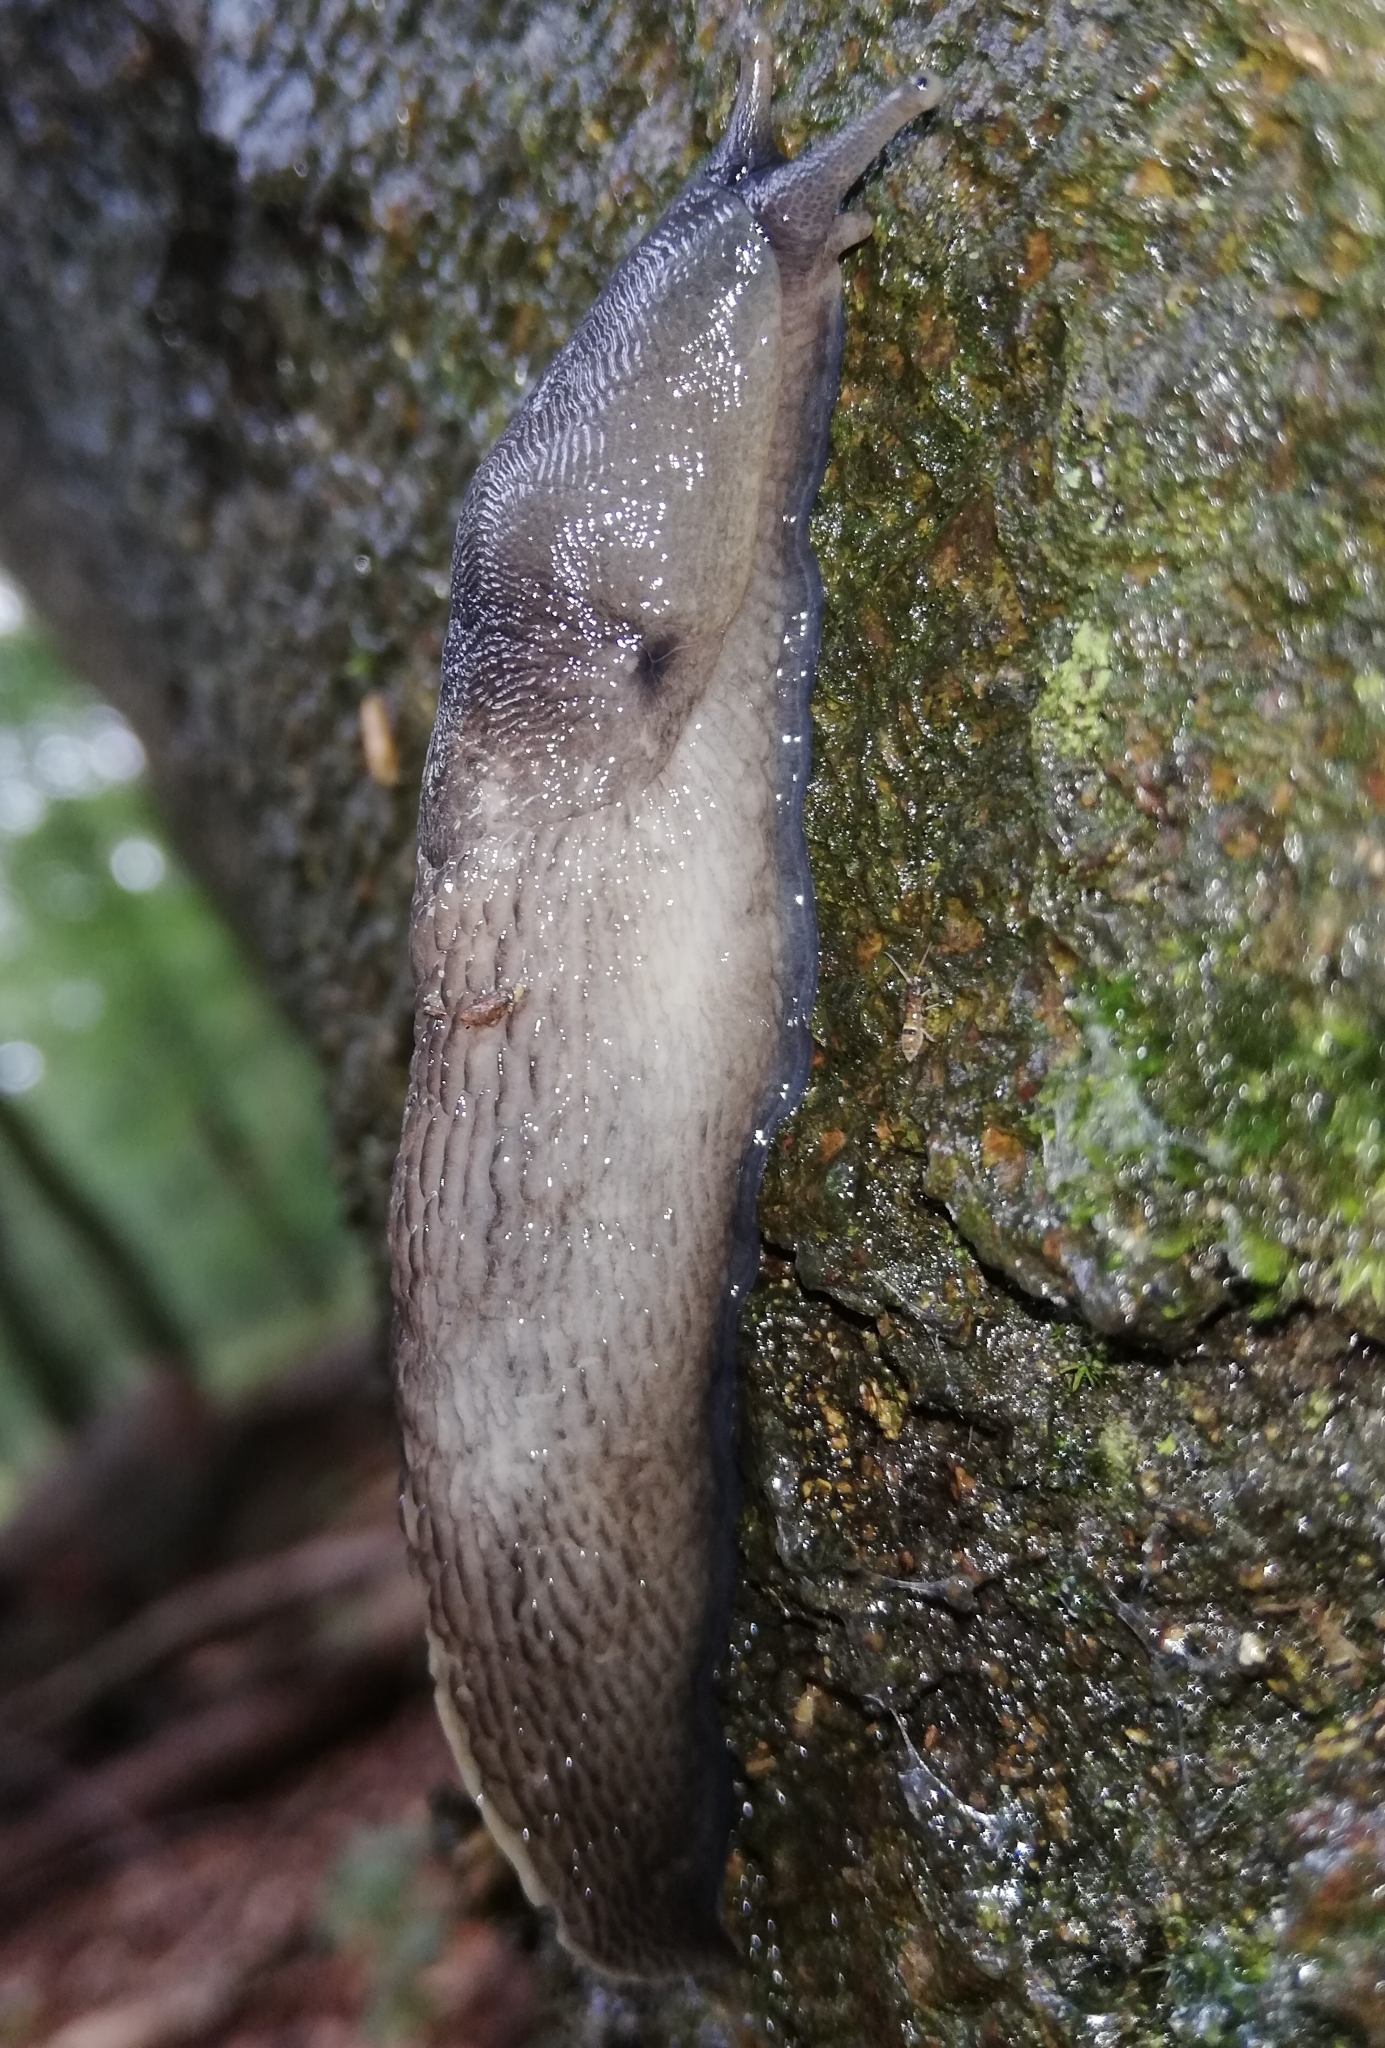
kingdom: Animalia
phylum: Mollusca
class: Gastropoda
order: Stylommatophora
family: Limacidae
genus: Limax
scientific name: Limax cinereoniger
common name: Ash-black slug
